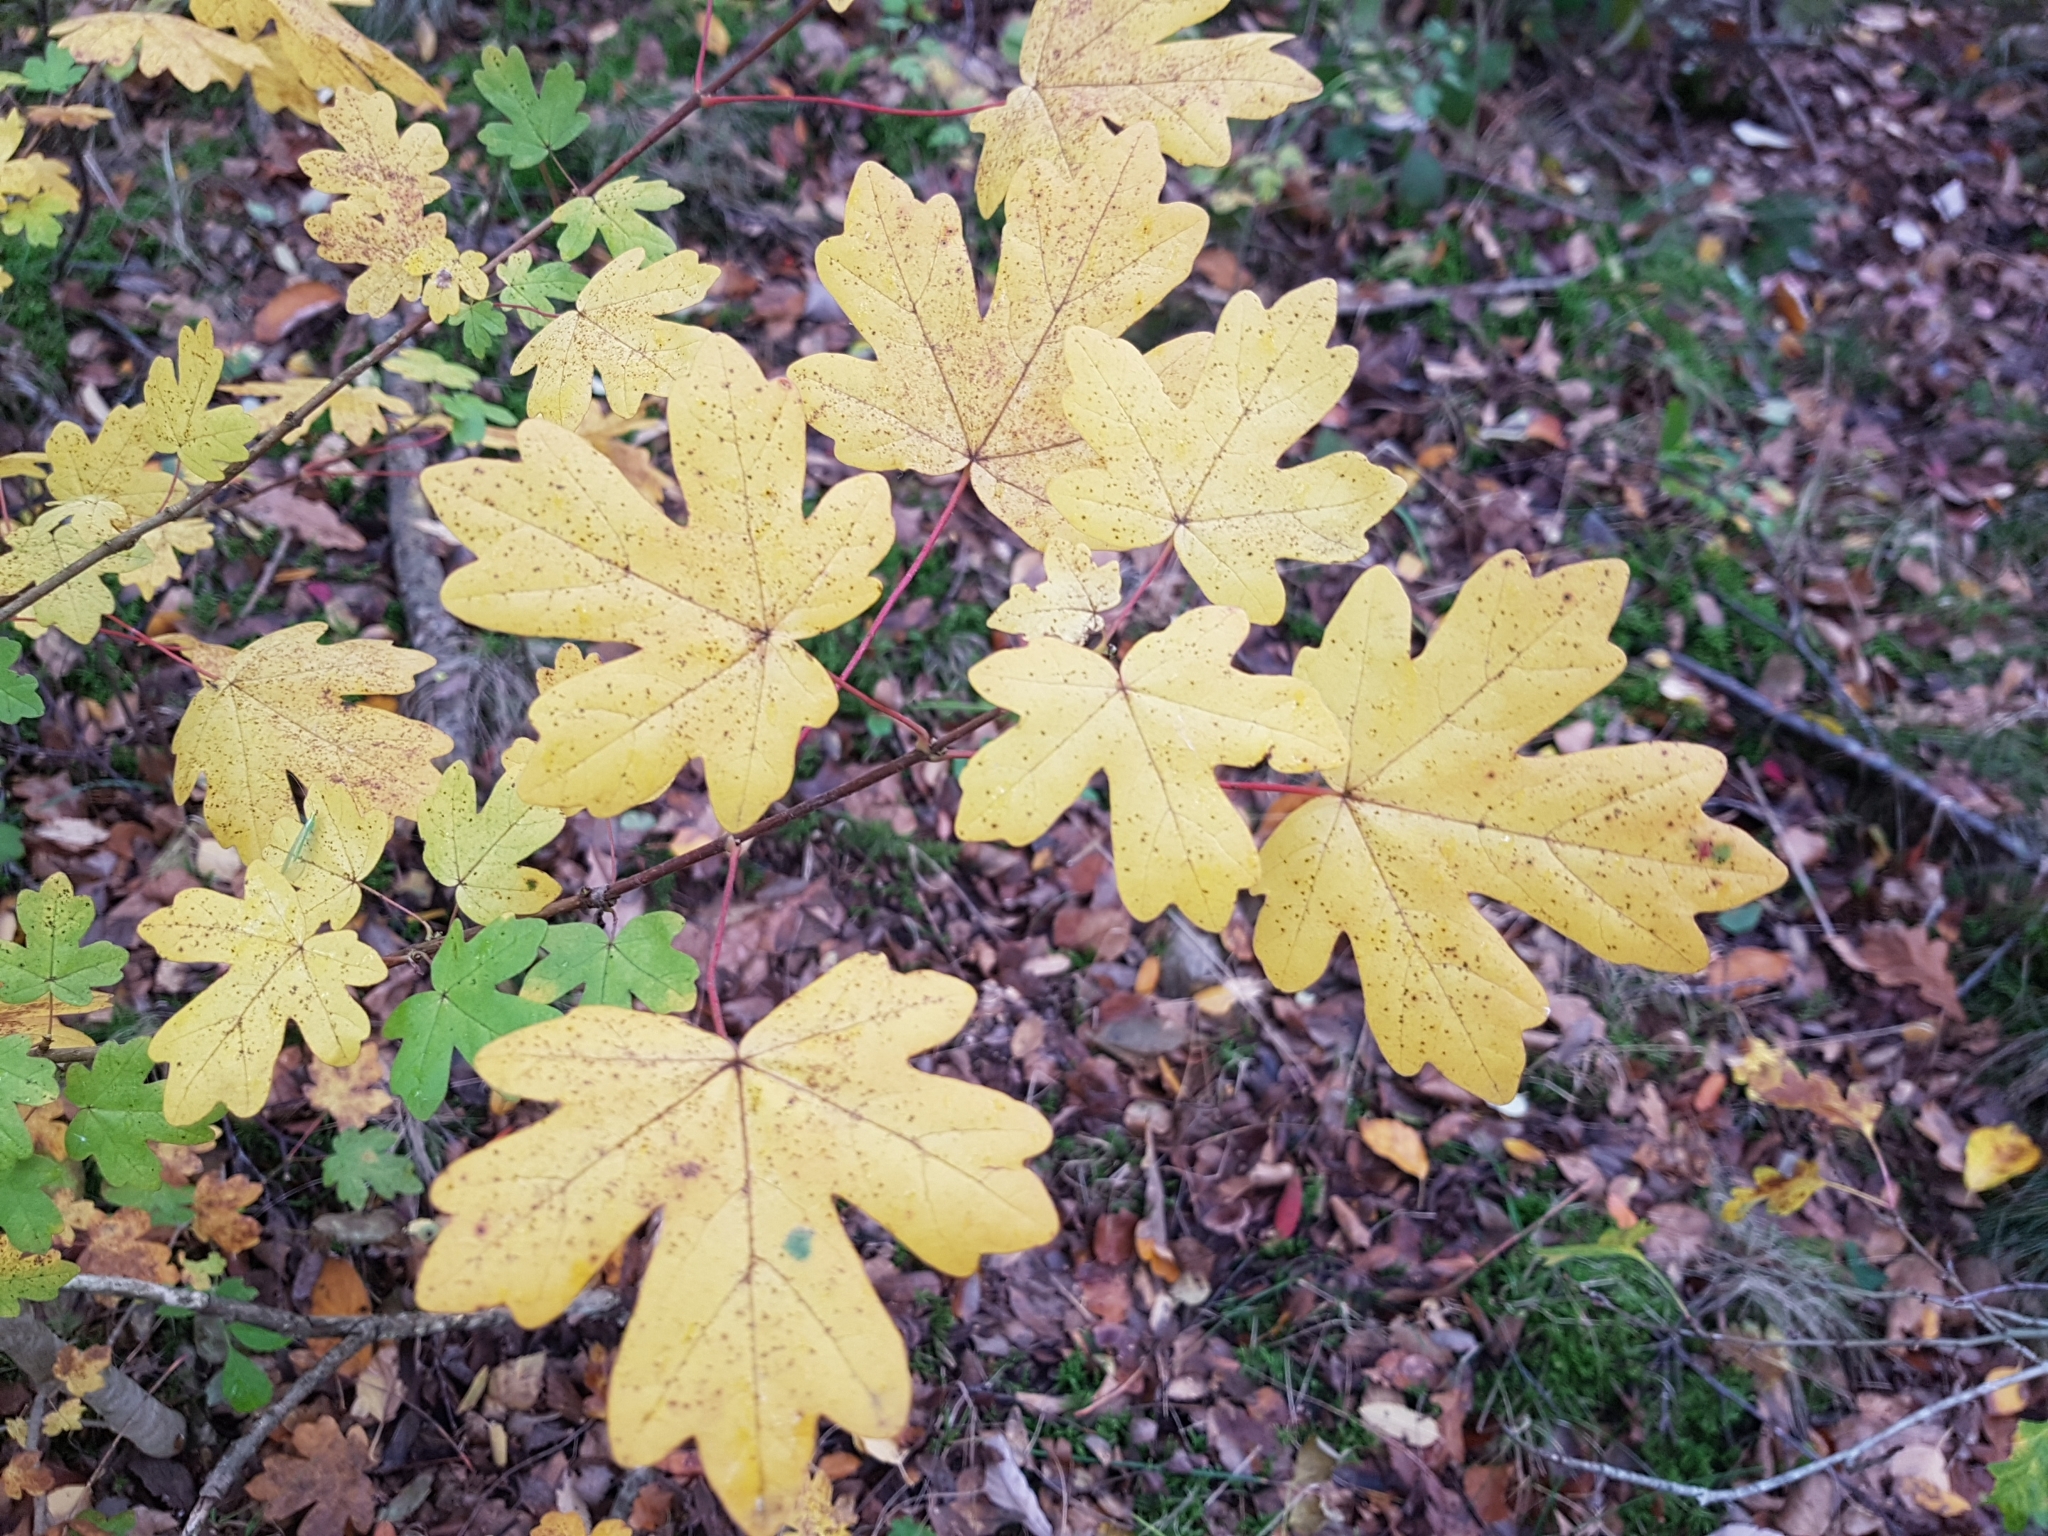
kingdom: Plantae
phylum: Tracheophyta
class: Magnoliopsida
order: Sapindales
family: Sapindaceae
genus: Acer
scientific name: Acer campestre
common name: Field maple
